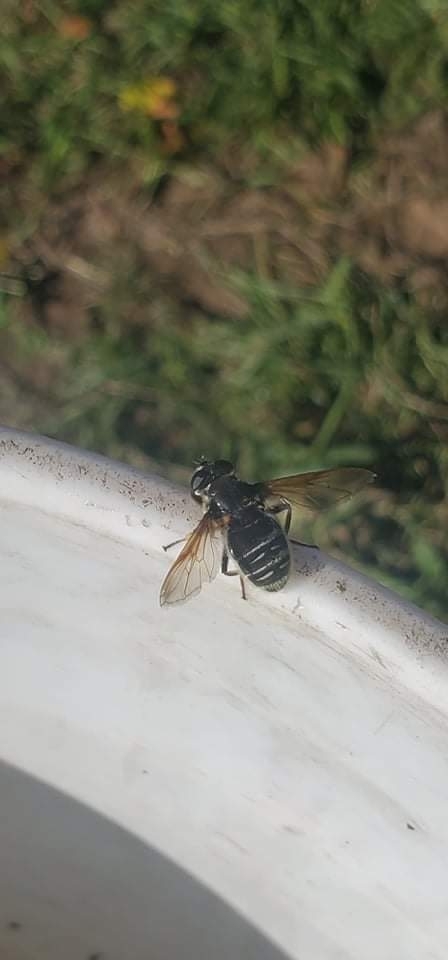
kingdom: Animalia
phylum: Arthropoda
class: Insecta
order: Diptera
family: Syrphidae
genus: Sericomyia
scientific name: Sericomyia militaris
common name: Narrow-banded pond fly
